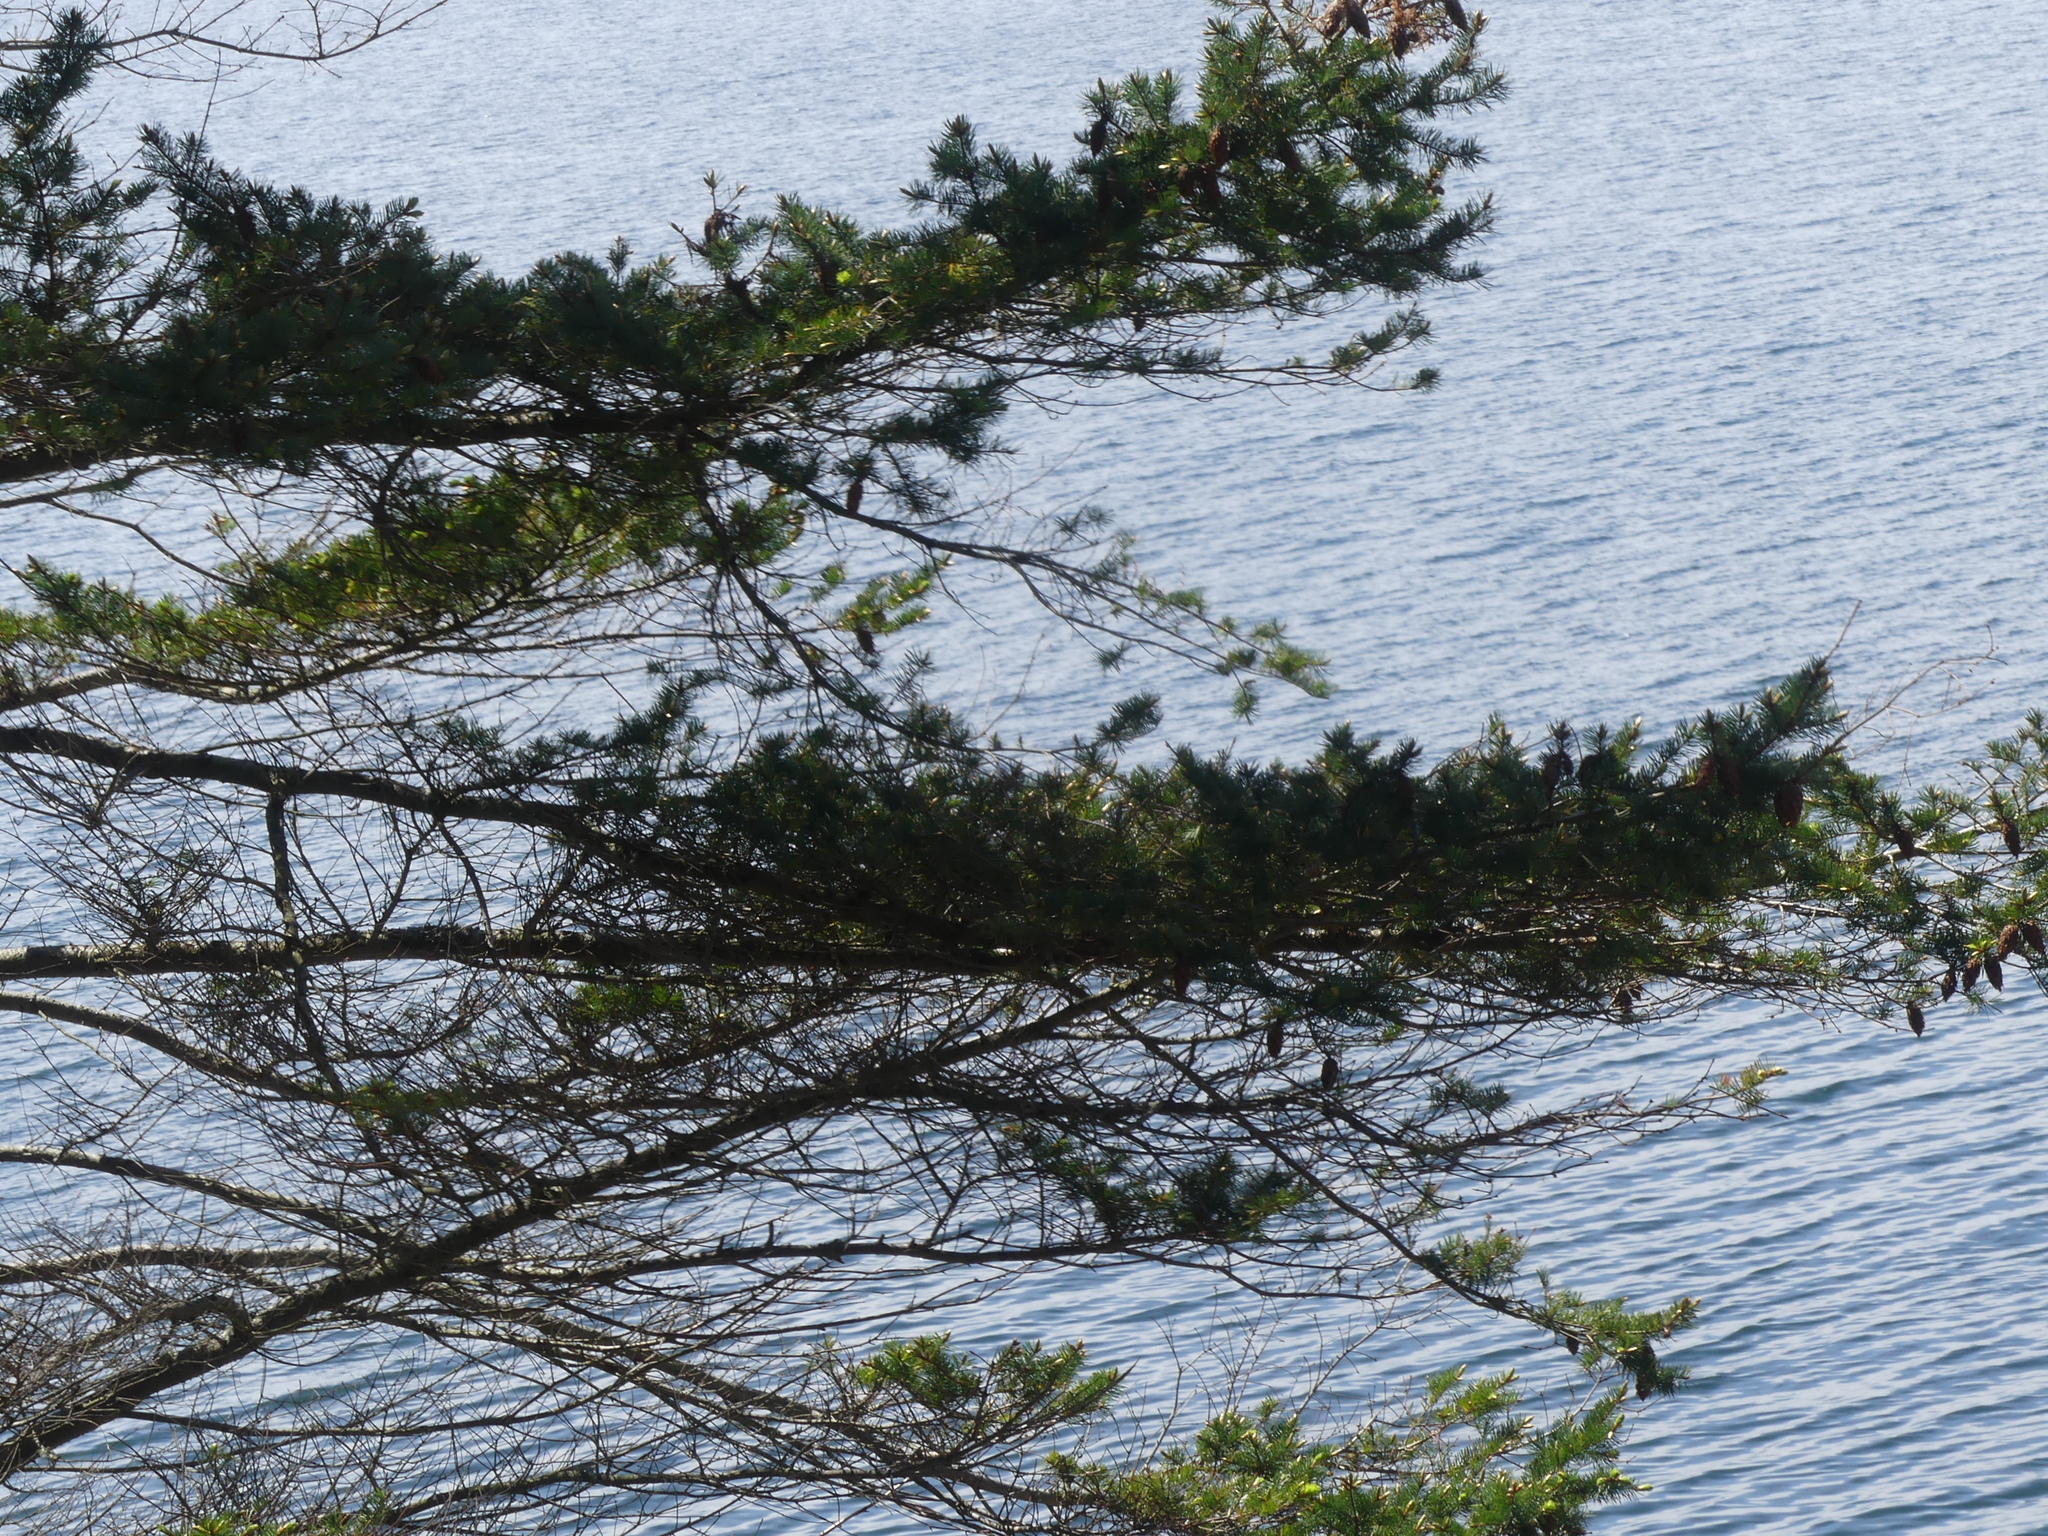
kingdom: Plantae
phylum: Tracheophyta
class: Pinopsida
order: Pinales
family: Pinaceae
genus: Pseudotsuga
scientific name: Pseudotsuga menziesii
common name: Douglas fir
